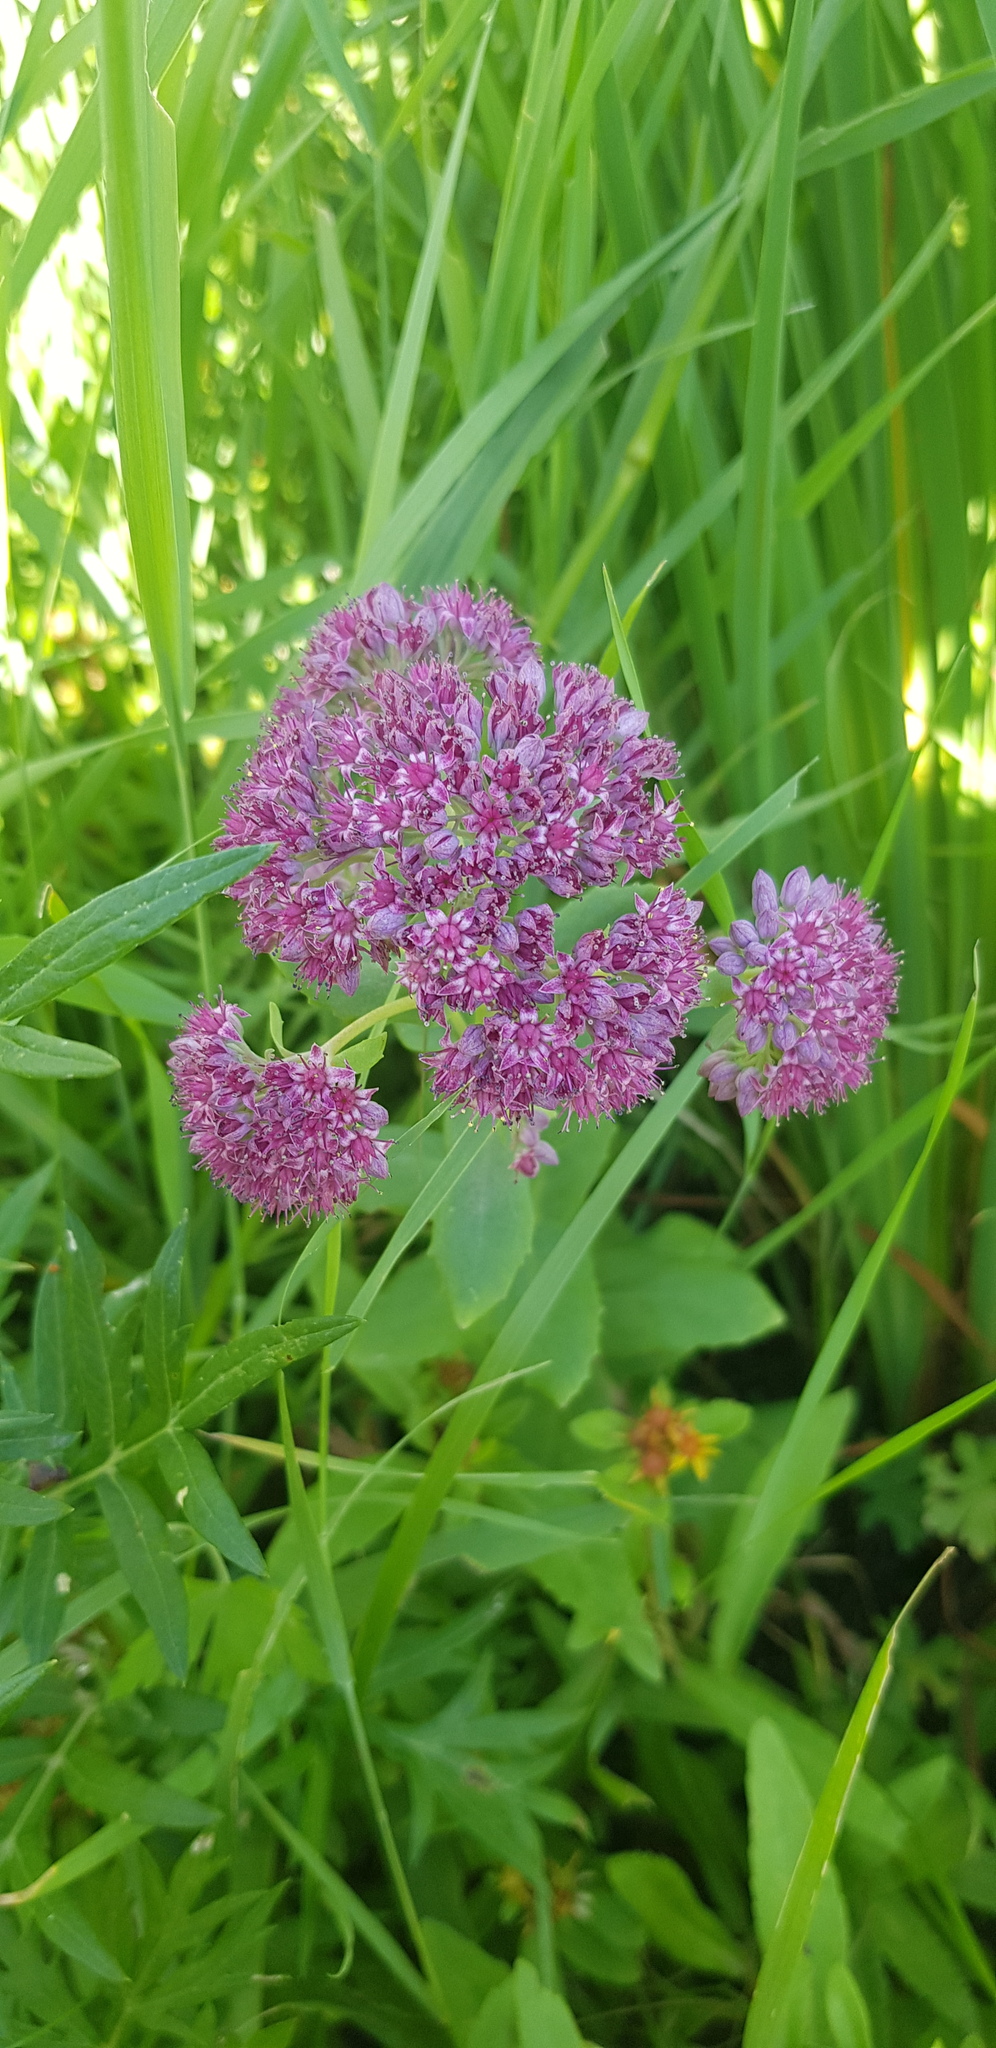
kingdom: Plantae
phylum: Tracheophyta
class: Magnoliopsida
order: Saxifragales
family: Crassulaceae
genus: Hylotelephium
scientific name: Hylotelephium telephium
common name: Live-forever
